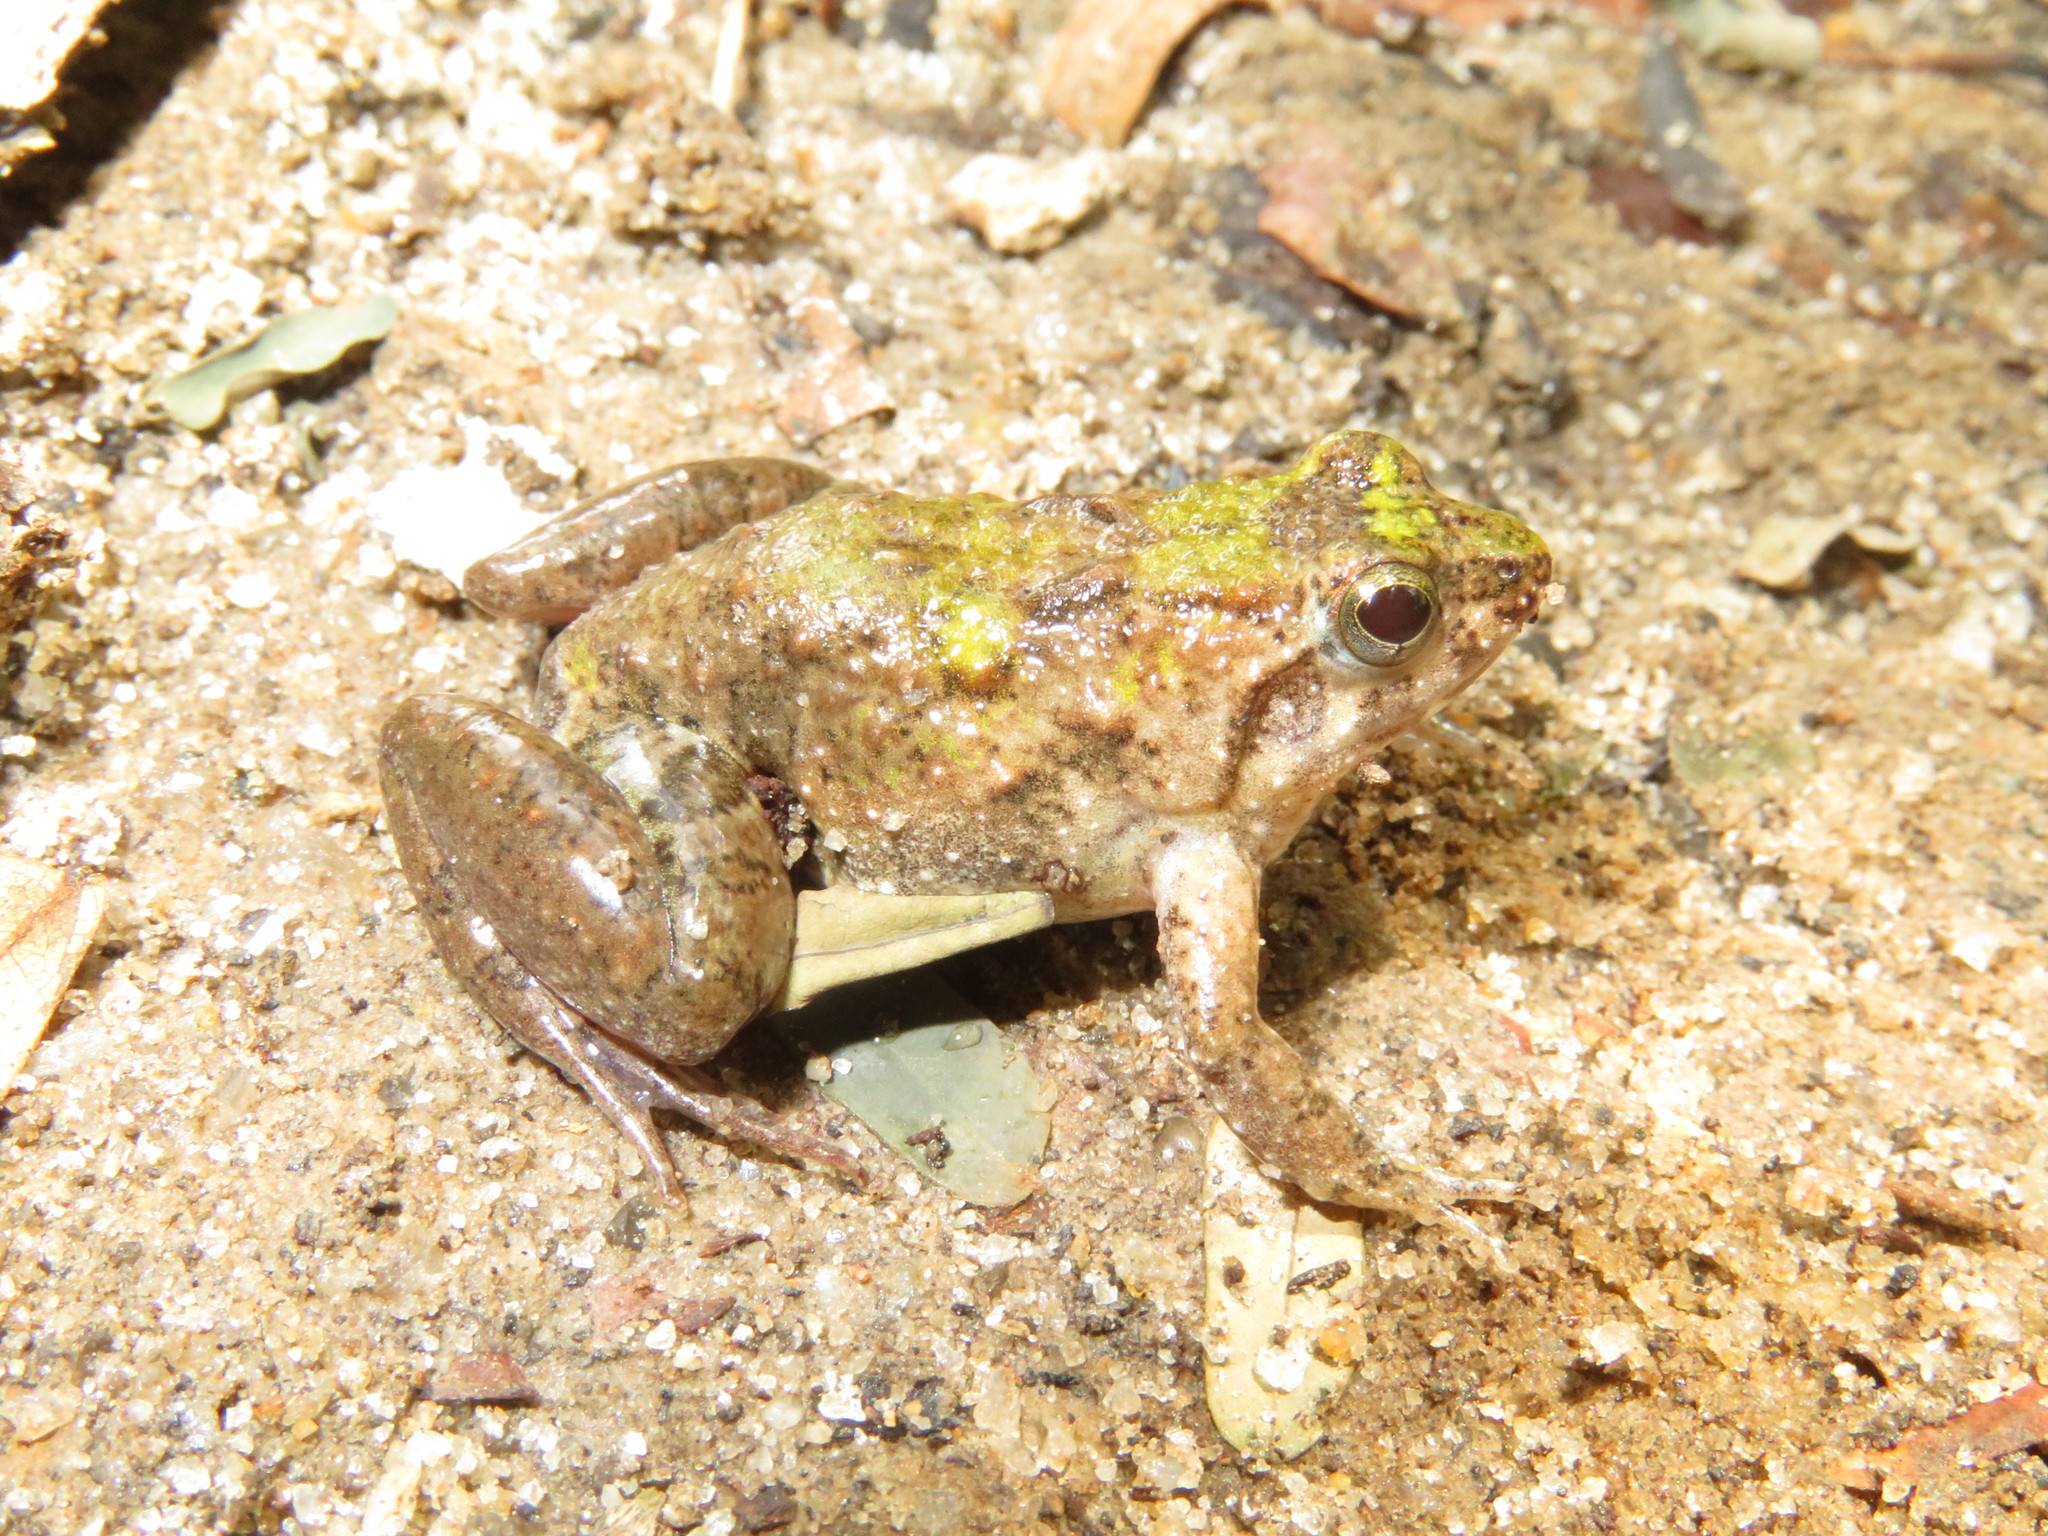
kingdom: Animalia
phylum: Chordata
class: Amphibia
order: Anura
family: Phrynobatrachidae
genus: Phrynobatrachus
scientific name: Phrynobatrachus natalensis
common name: Snoring puddle frog
